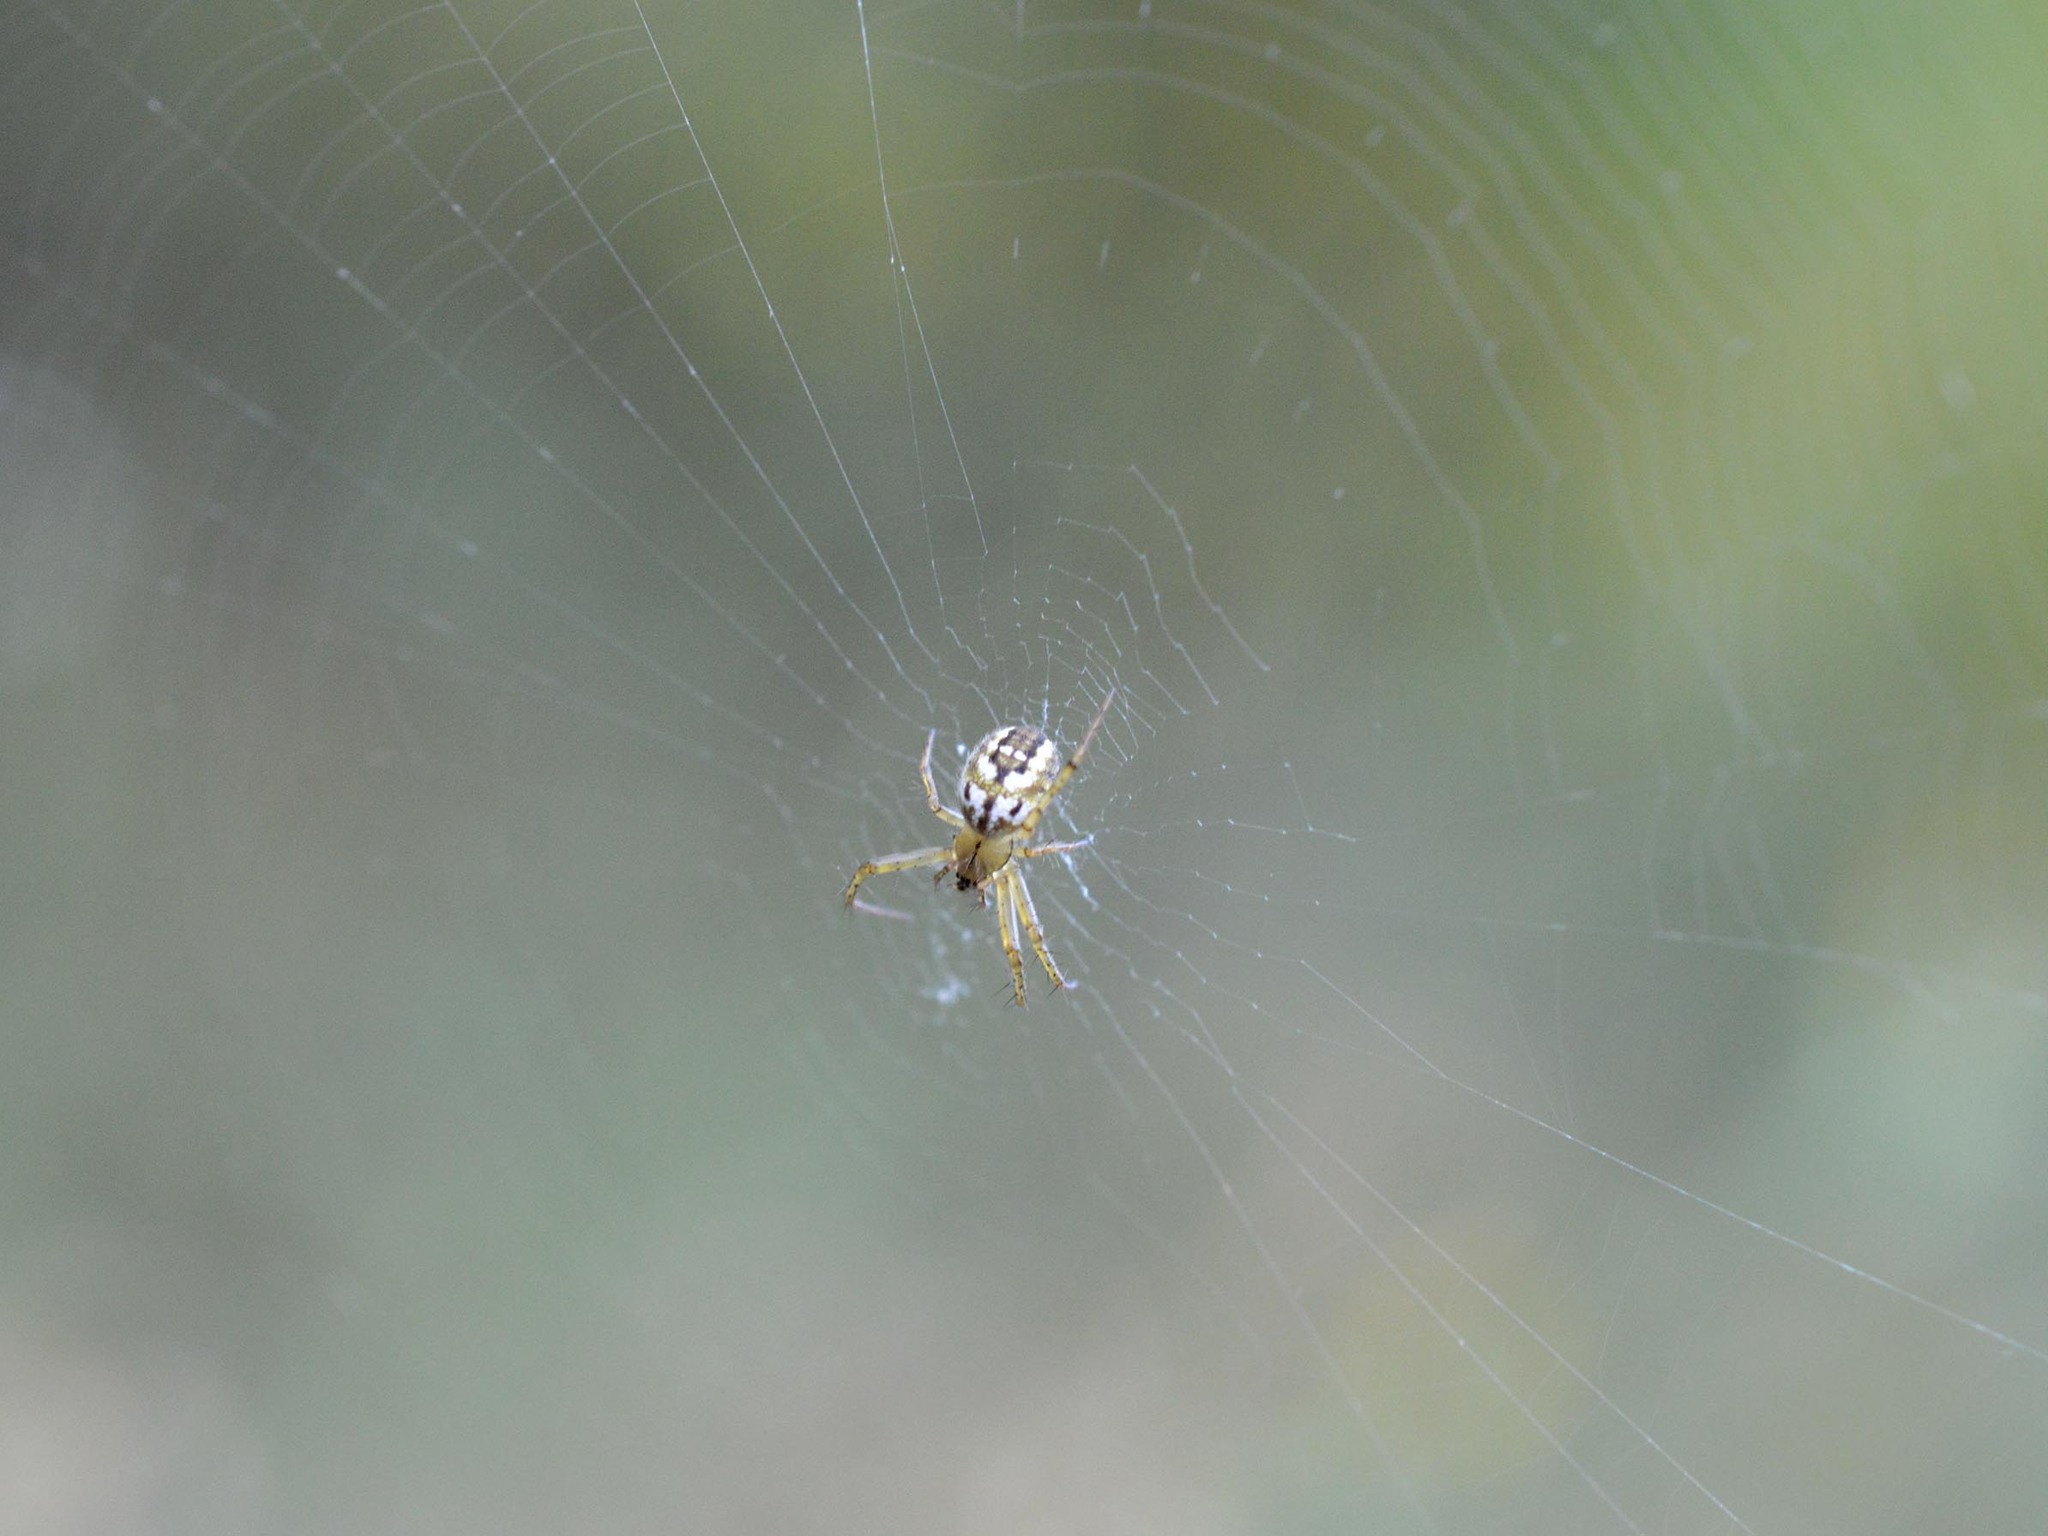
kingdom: Animalia
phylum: Arthropoda
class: Arachnida
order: Araneae
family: Araneidae
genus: Mangora
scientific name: Mangora acalypha
